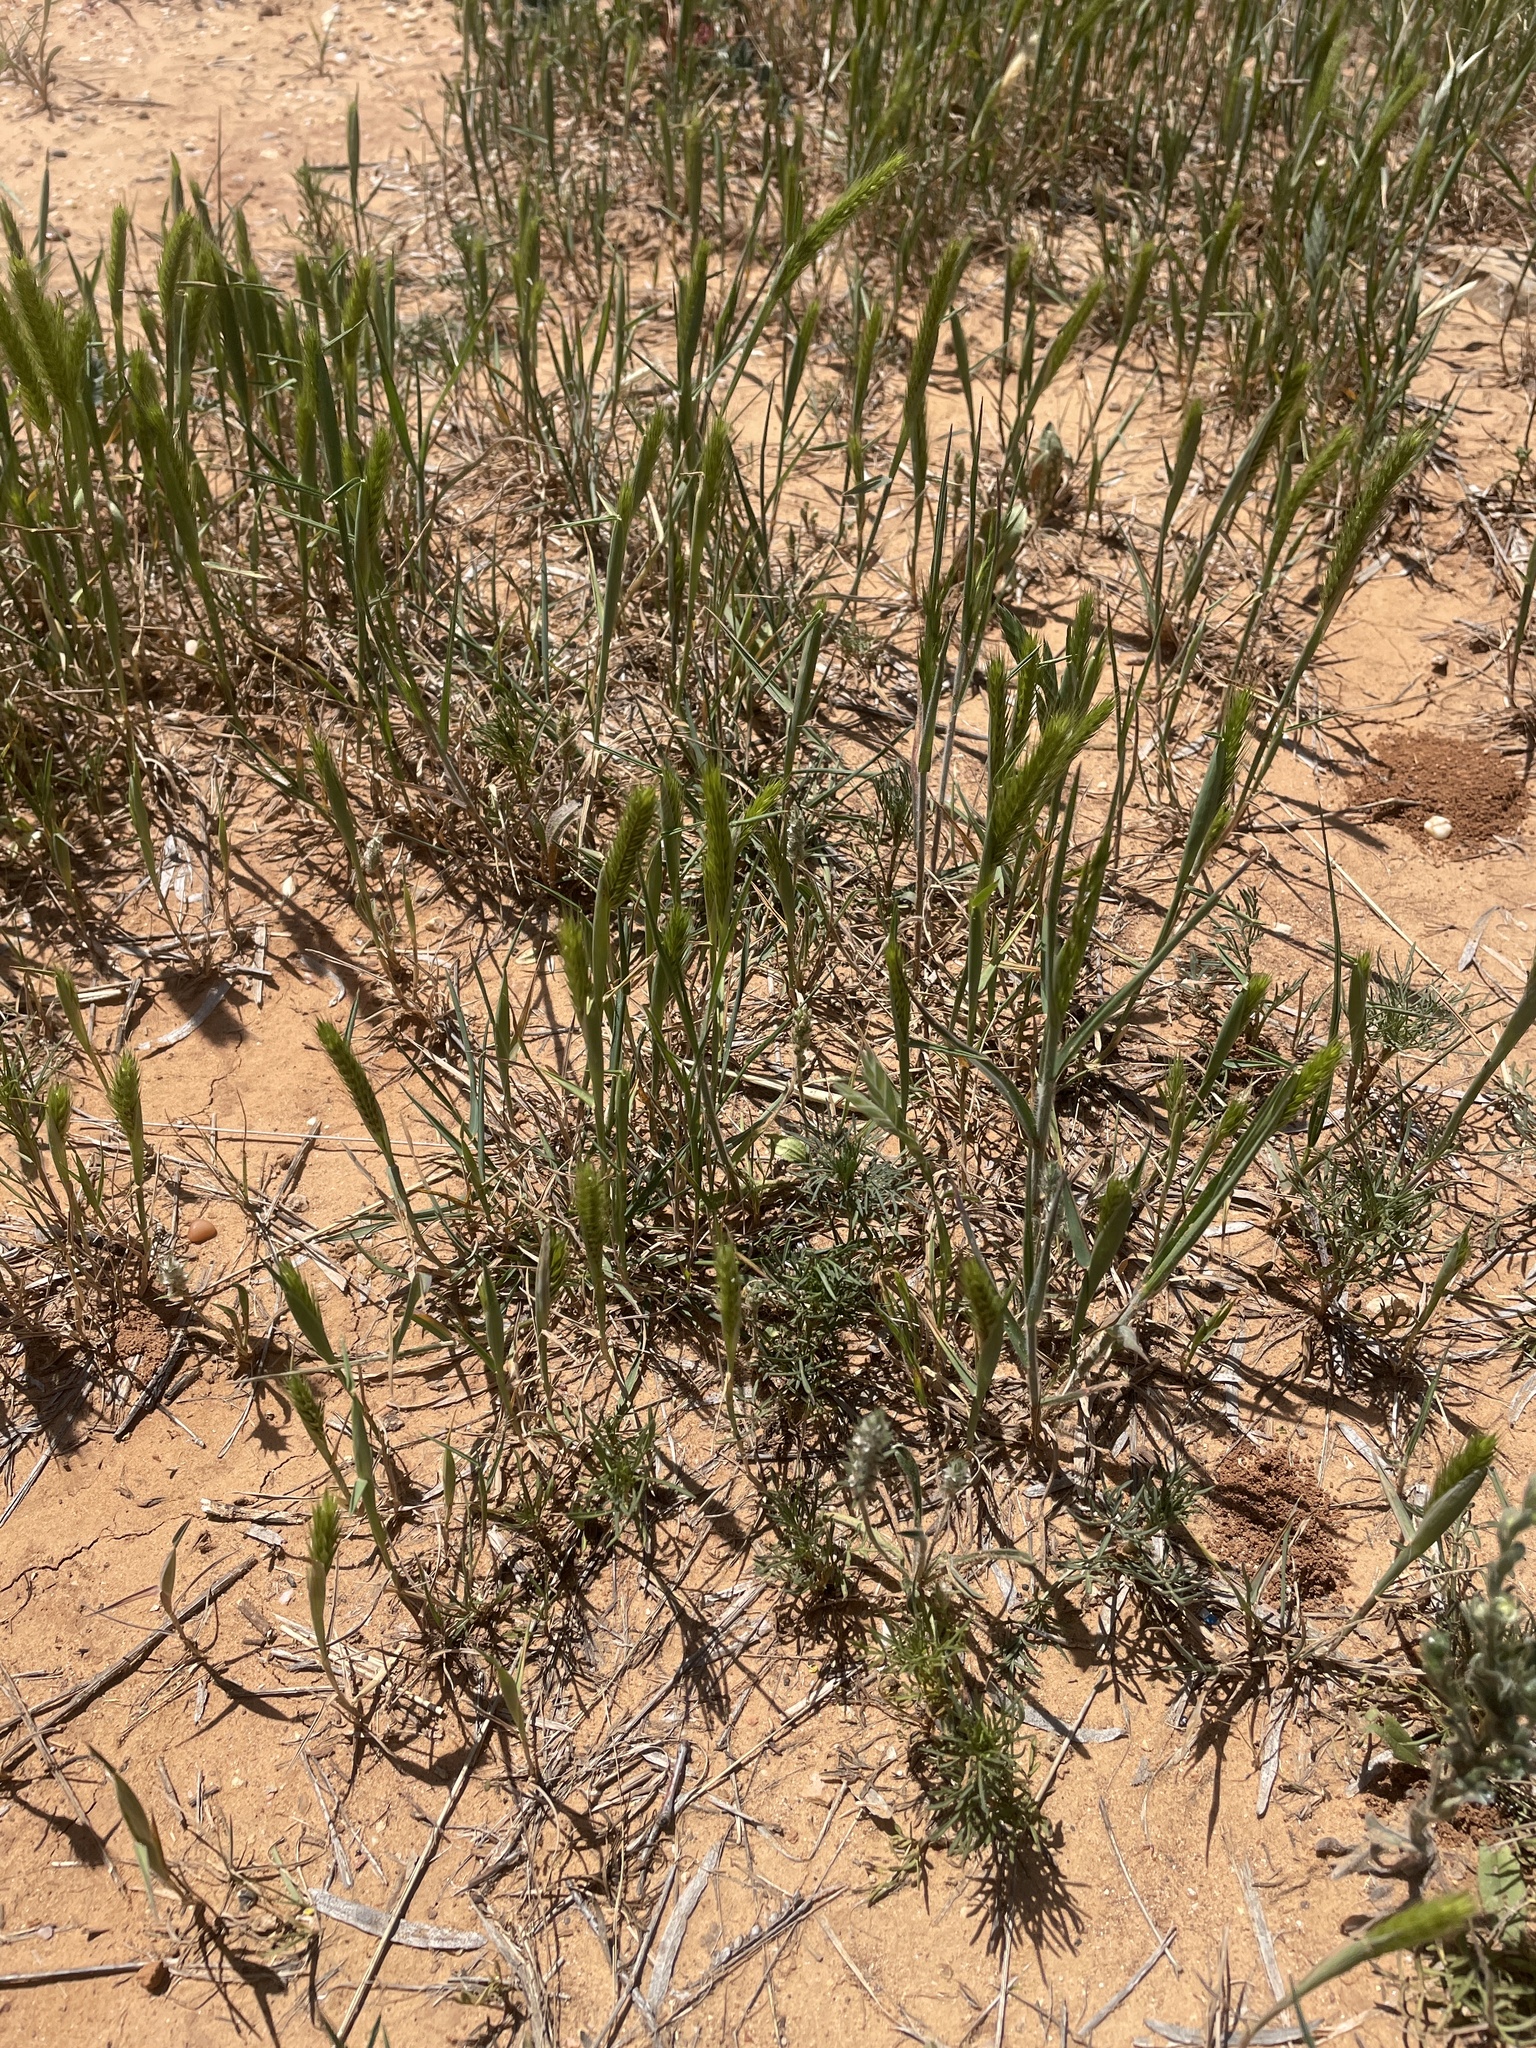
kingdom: Plantae
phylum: Tracheophyta
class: Liliopsida
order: Poales
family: Poaceae
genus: Hordeum
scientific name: Hordeum pusillum
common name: Little barley
